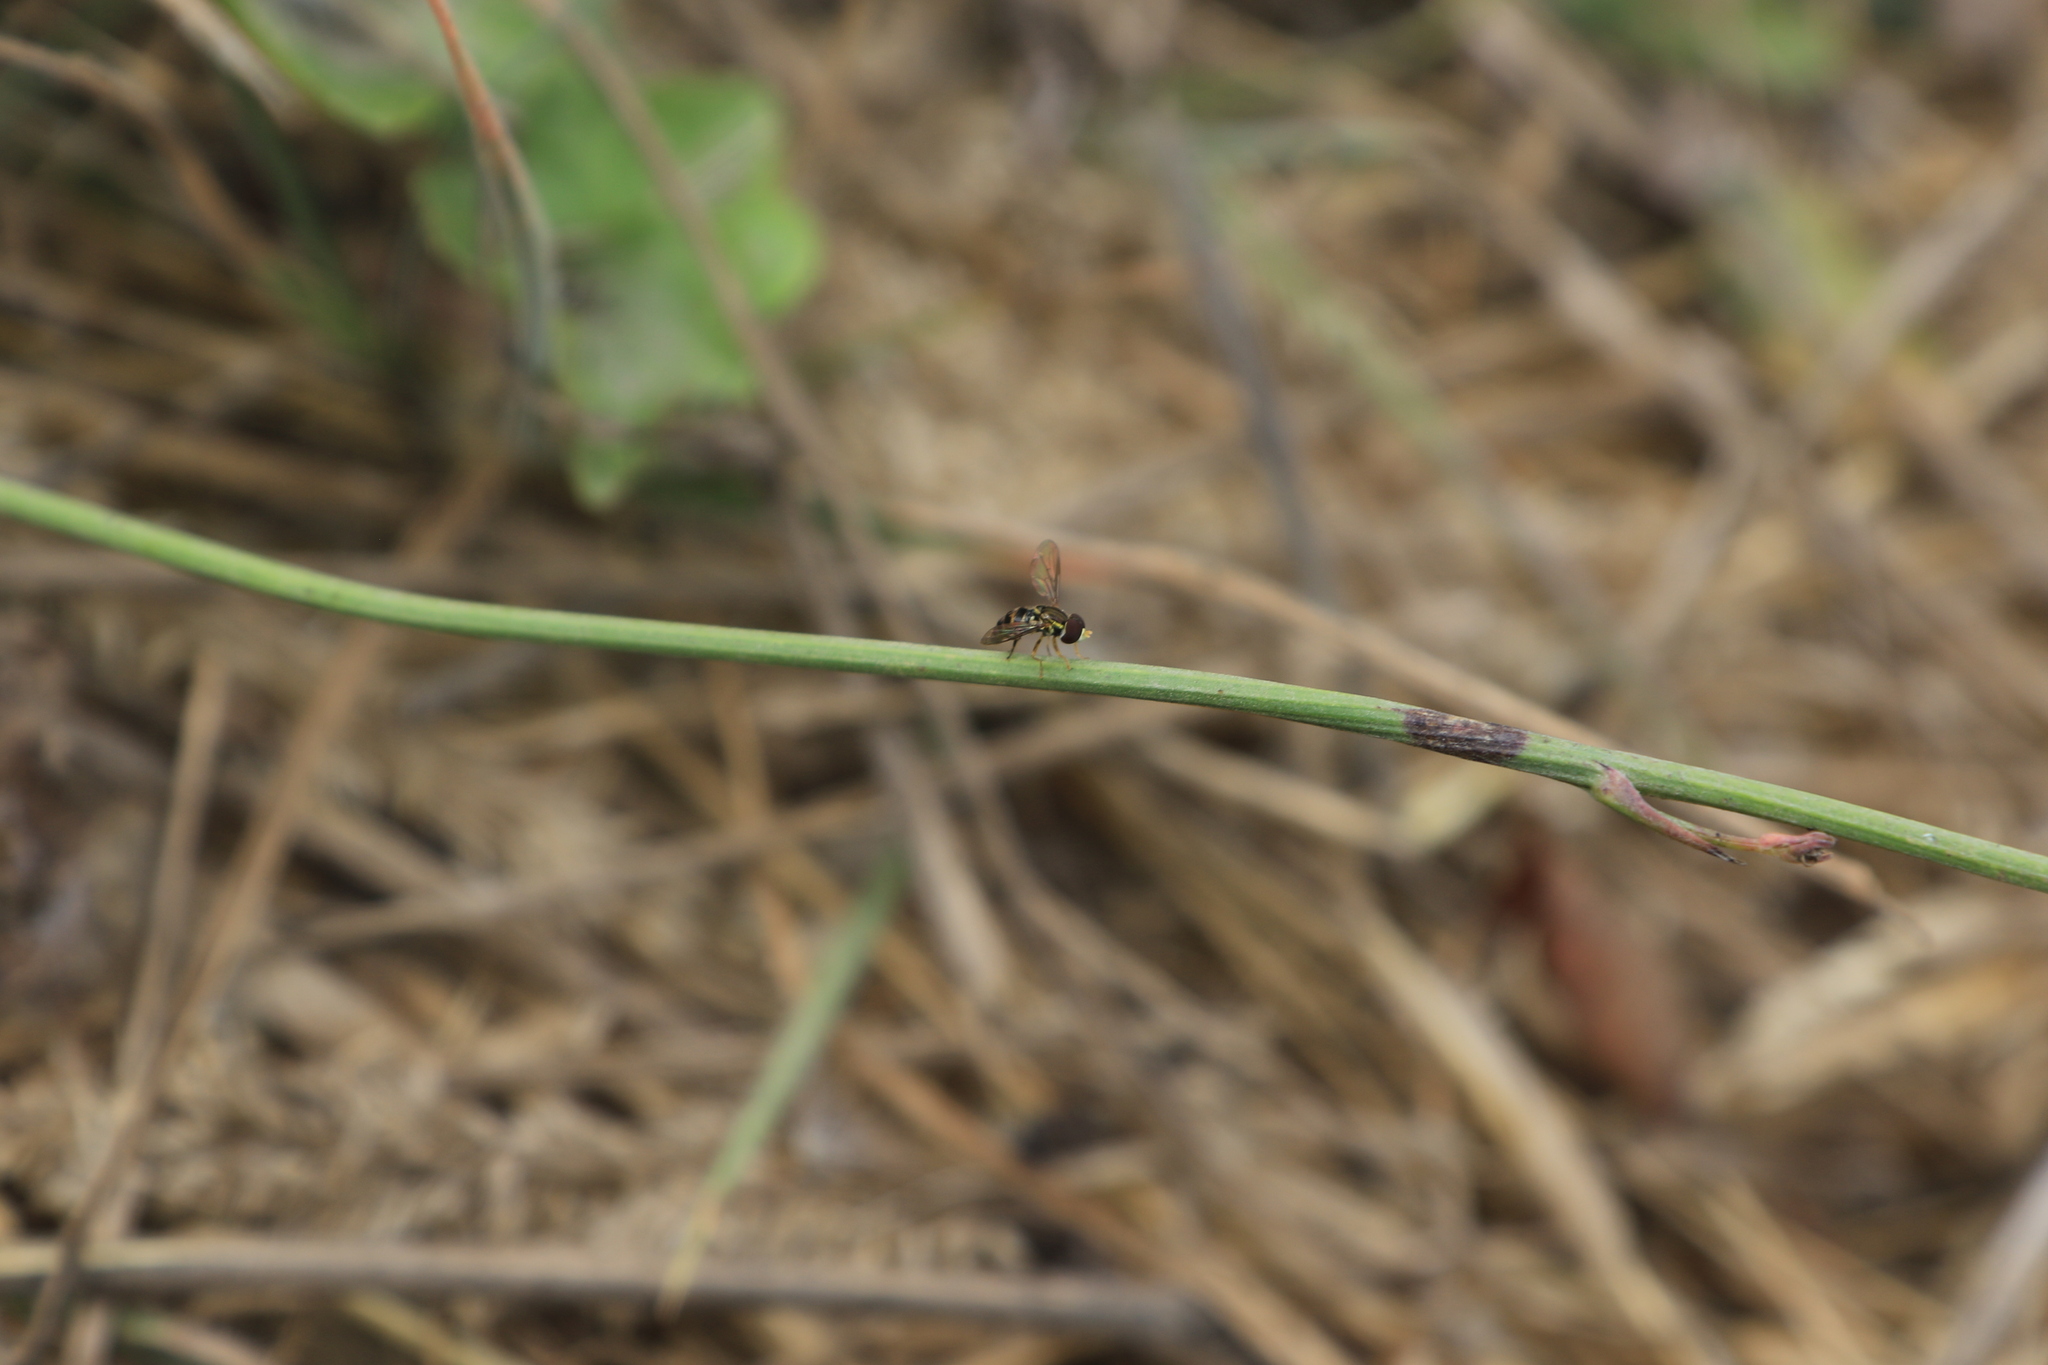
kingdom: Animalia
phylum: Arthropoda
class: Insecta
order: Diptera
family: Syrphidae
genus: Toxomerus
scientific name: Toxomerus occidentalis
